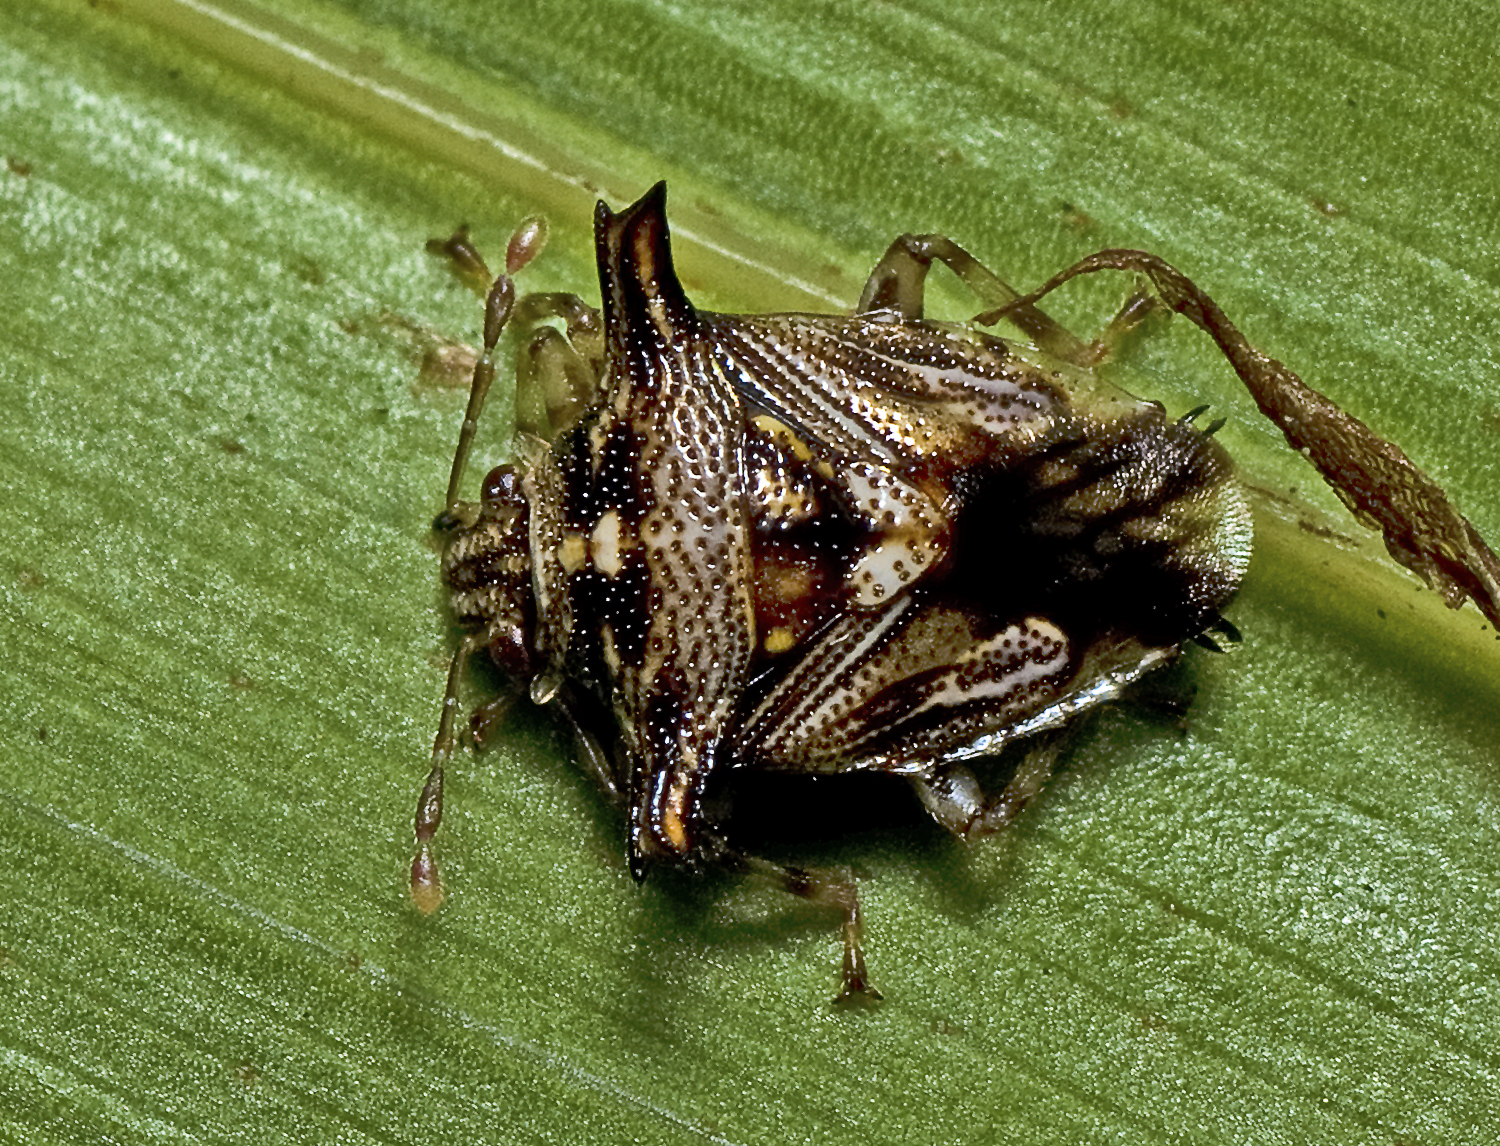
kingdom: Animalia
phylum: Arthropoda
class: Insecta
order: Hemiptera
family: Acanthosomatidae
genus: Panaetius
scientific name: Panaetius lobulatus
